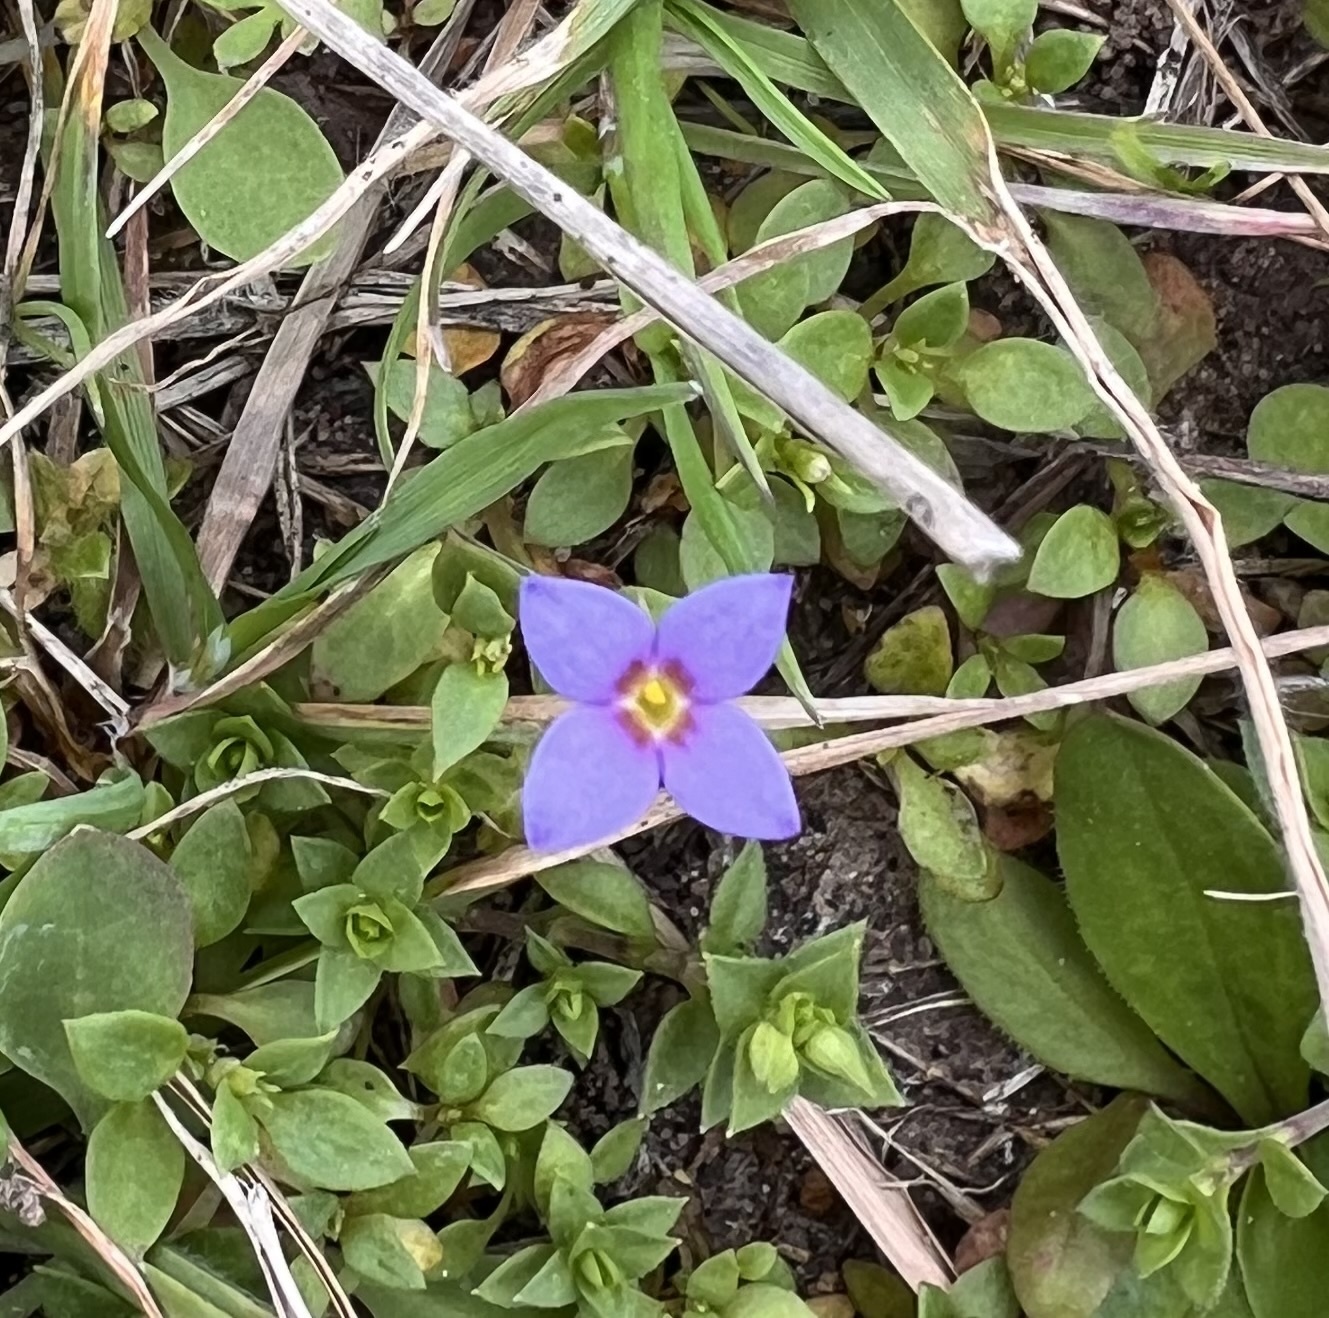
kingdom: Plantae
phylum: Tracheophyta
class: Magnoliopsida
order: Gentianales
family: Rubiaceae
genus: Houstonia
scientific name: Houstonia pusilla
